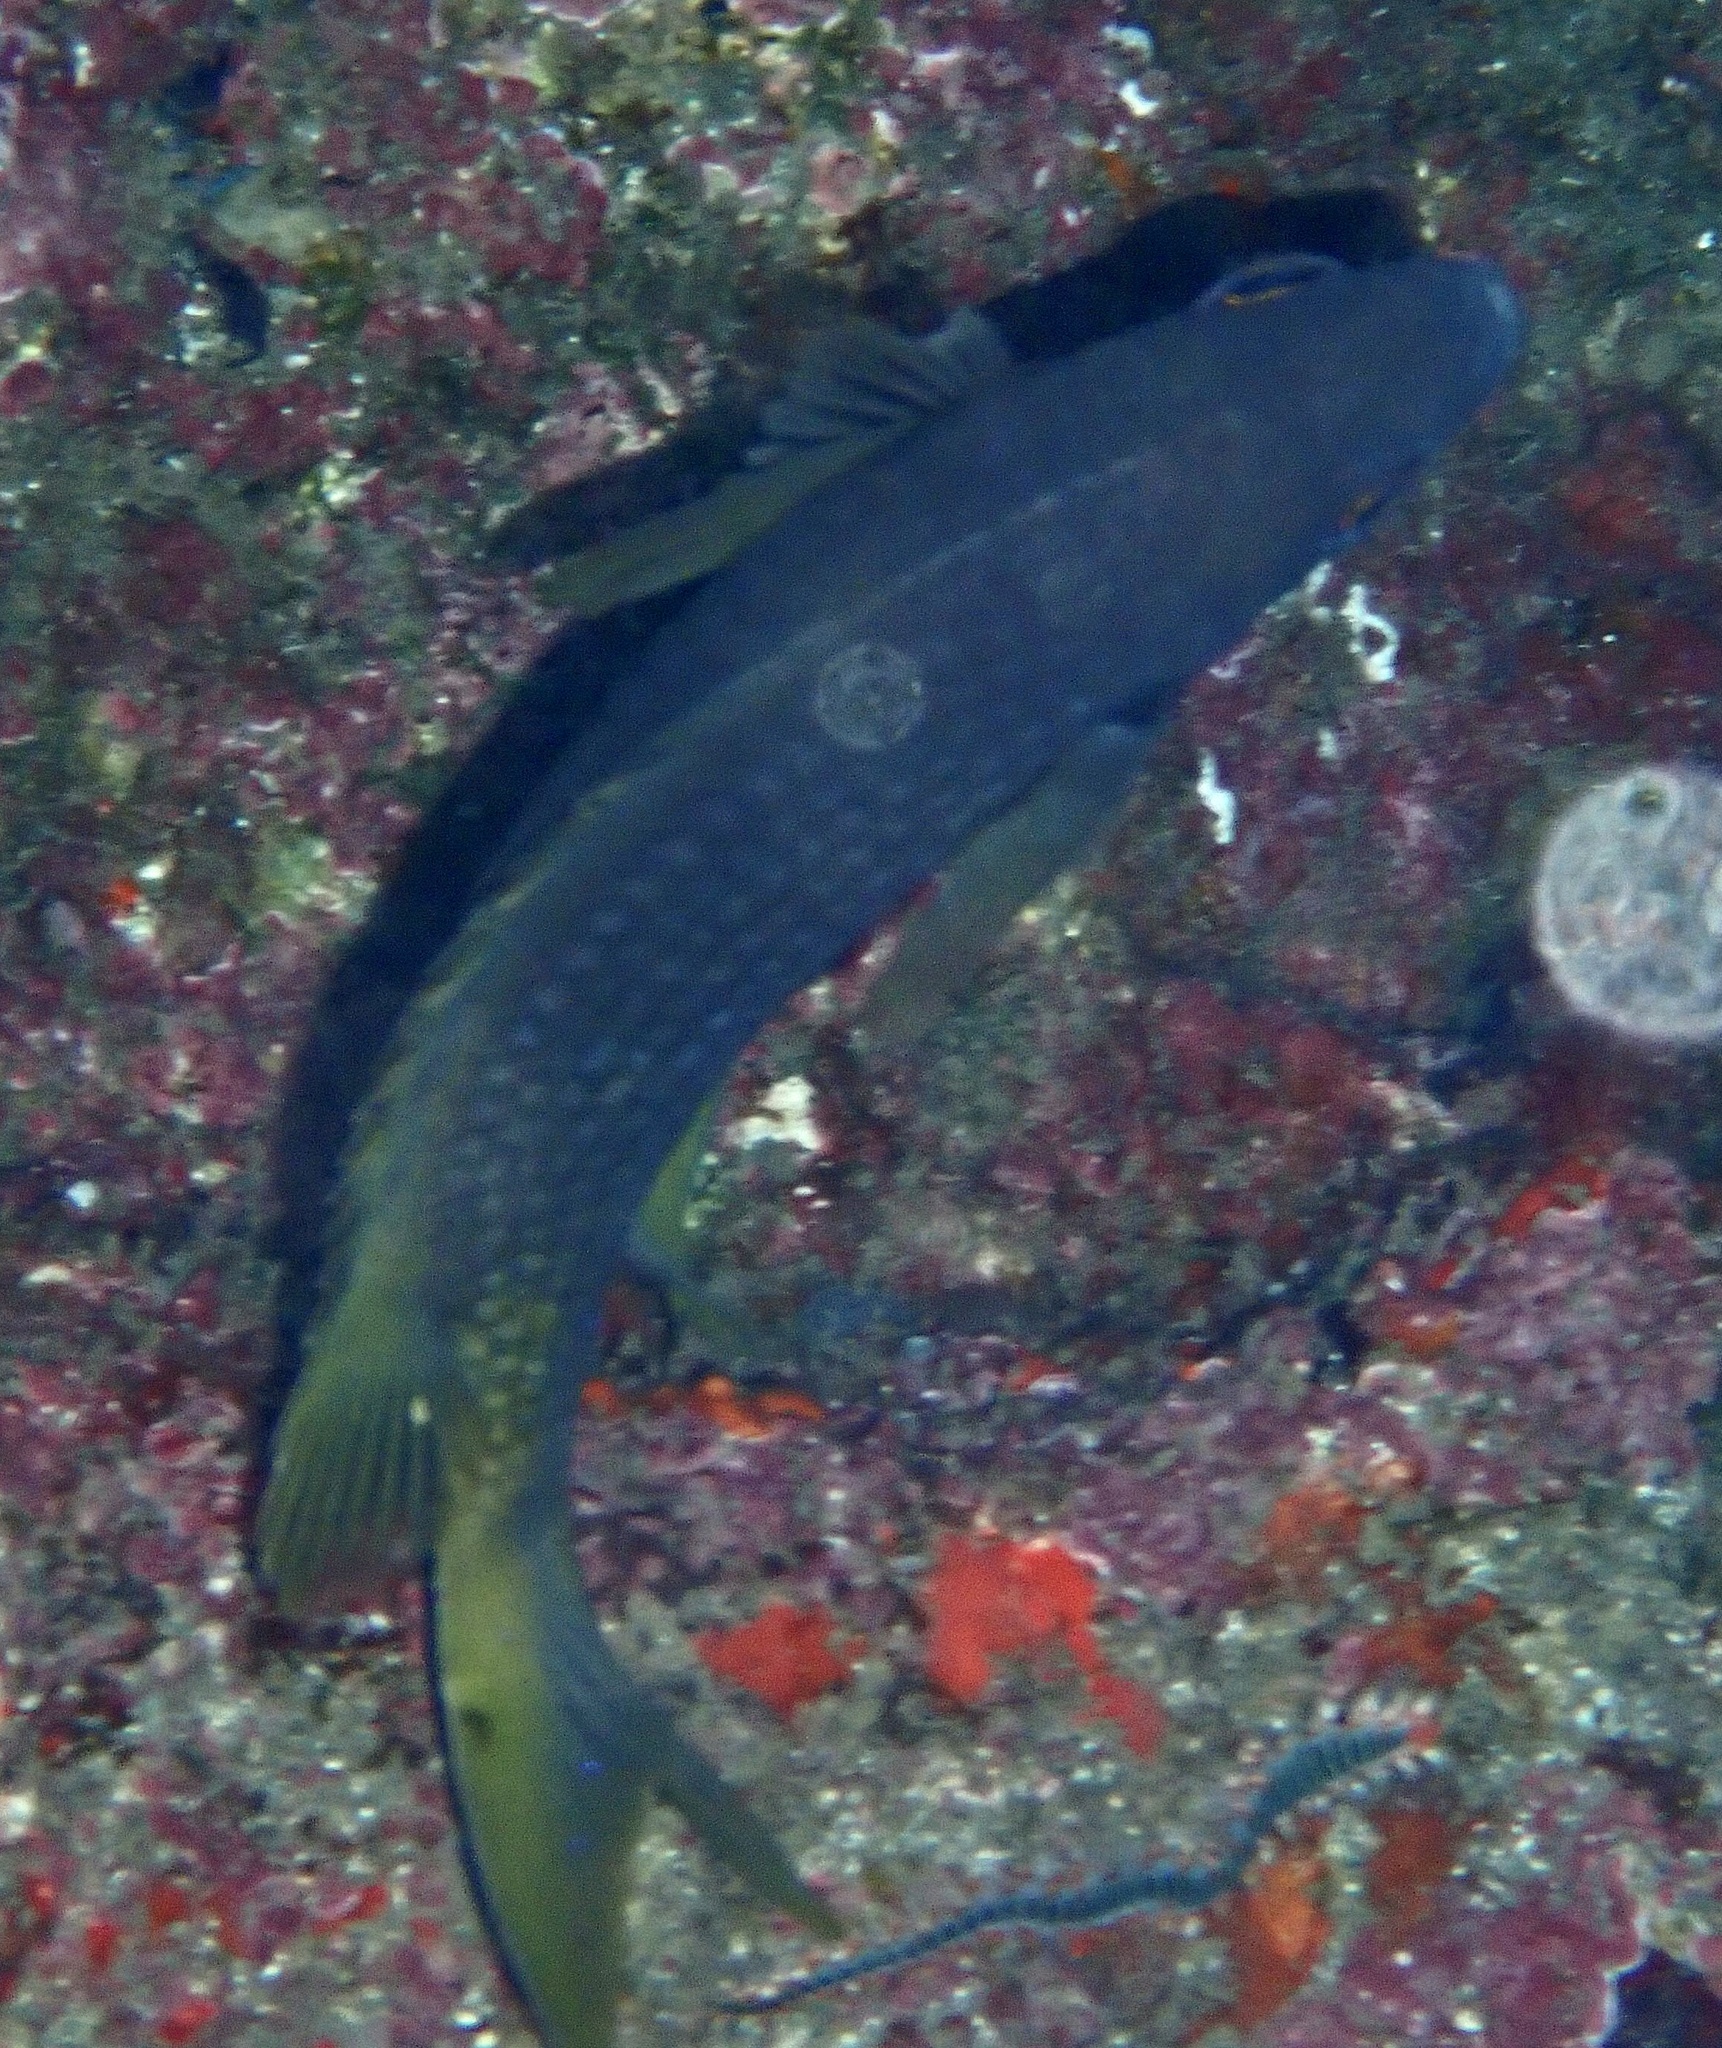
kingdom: Animalia
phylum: Chordata
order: Perciformes
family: Pomacentridae
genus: Chromis
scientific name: Chromis lubbocki
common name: Lubbock's chromis
